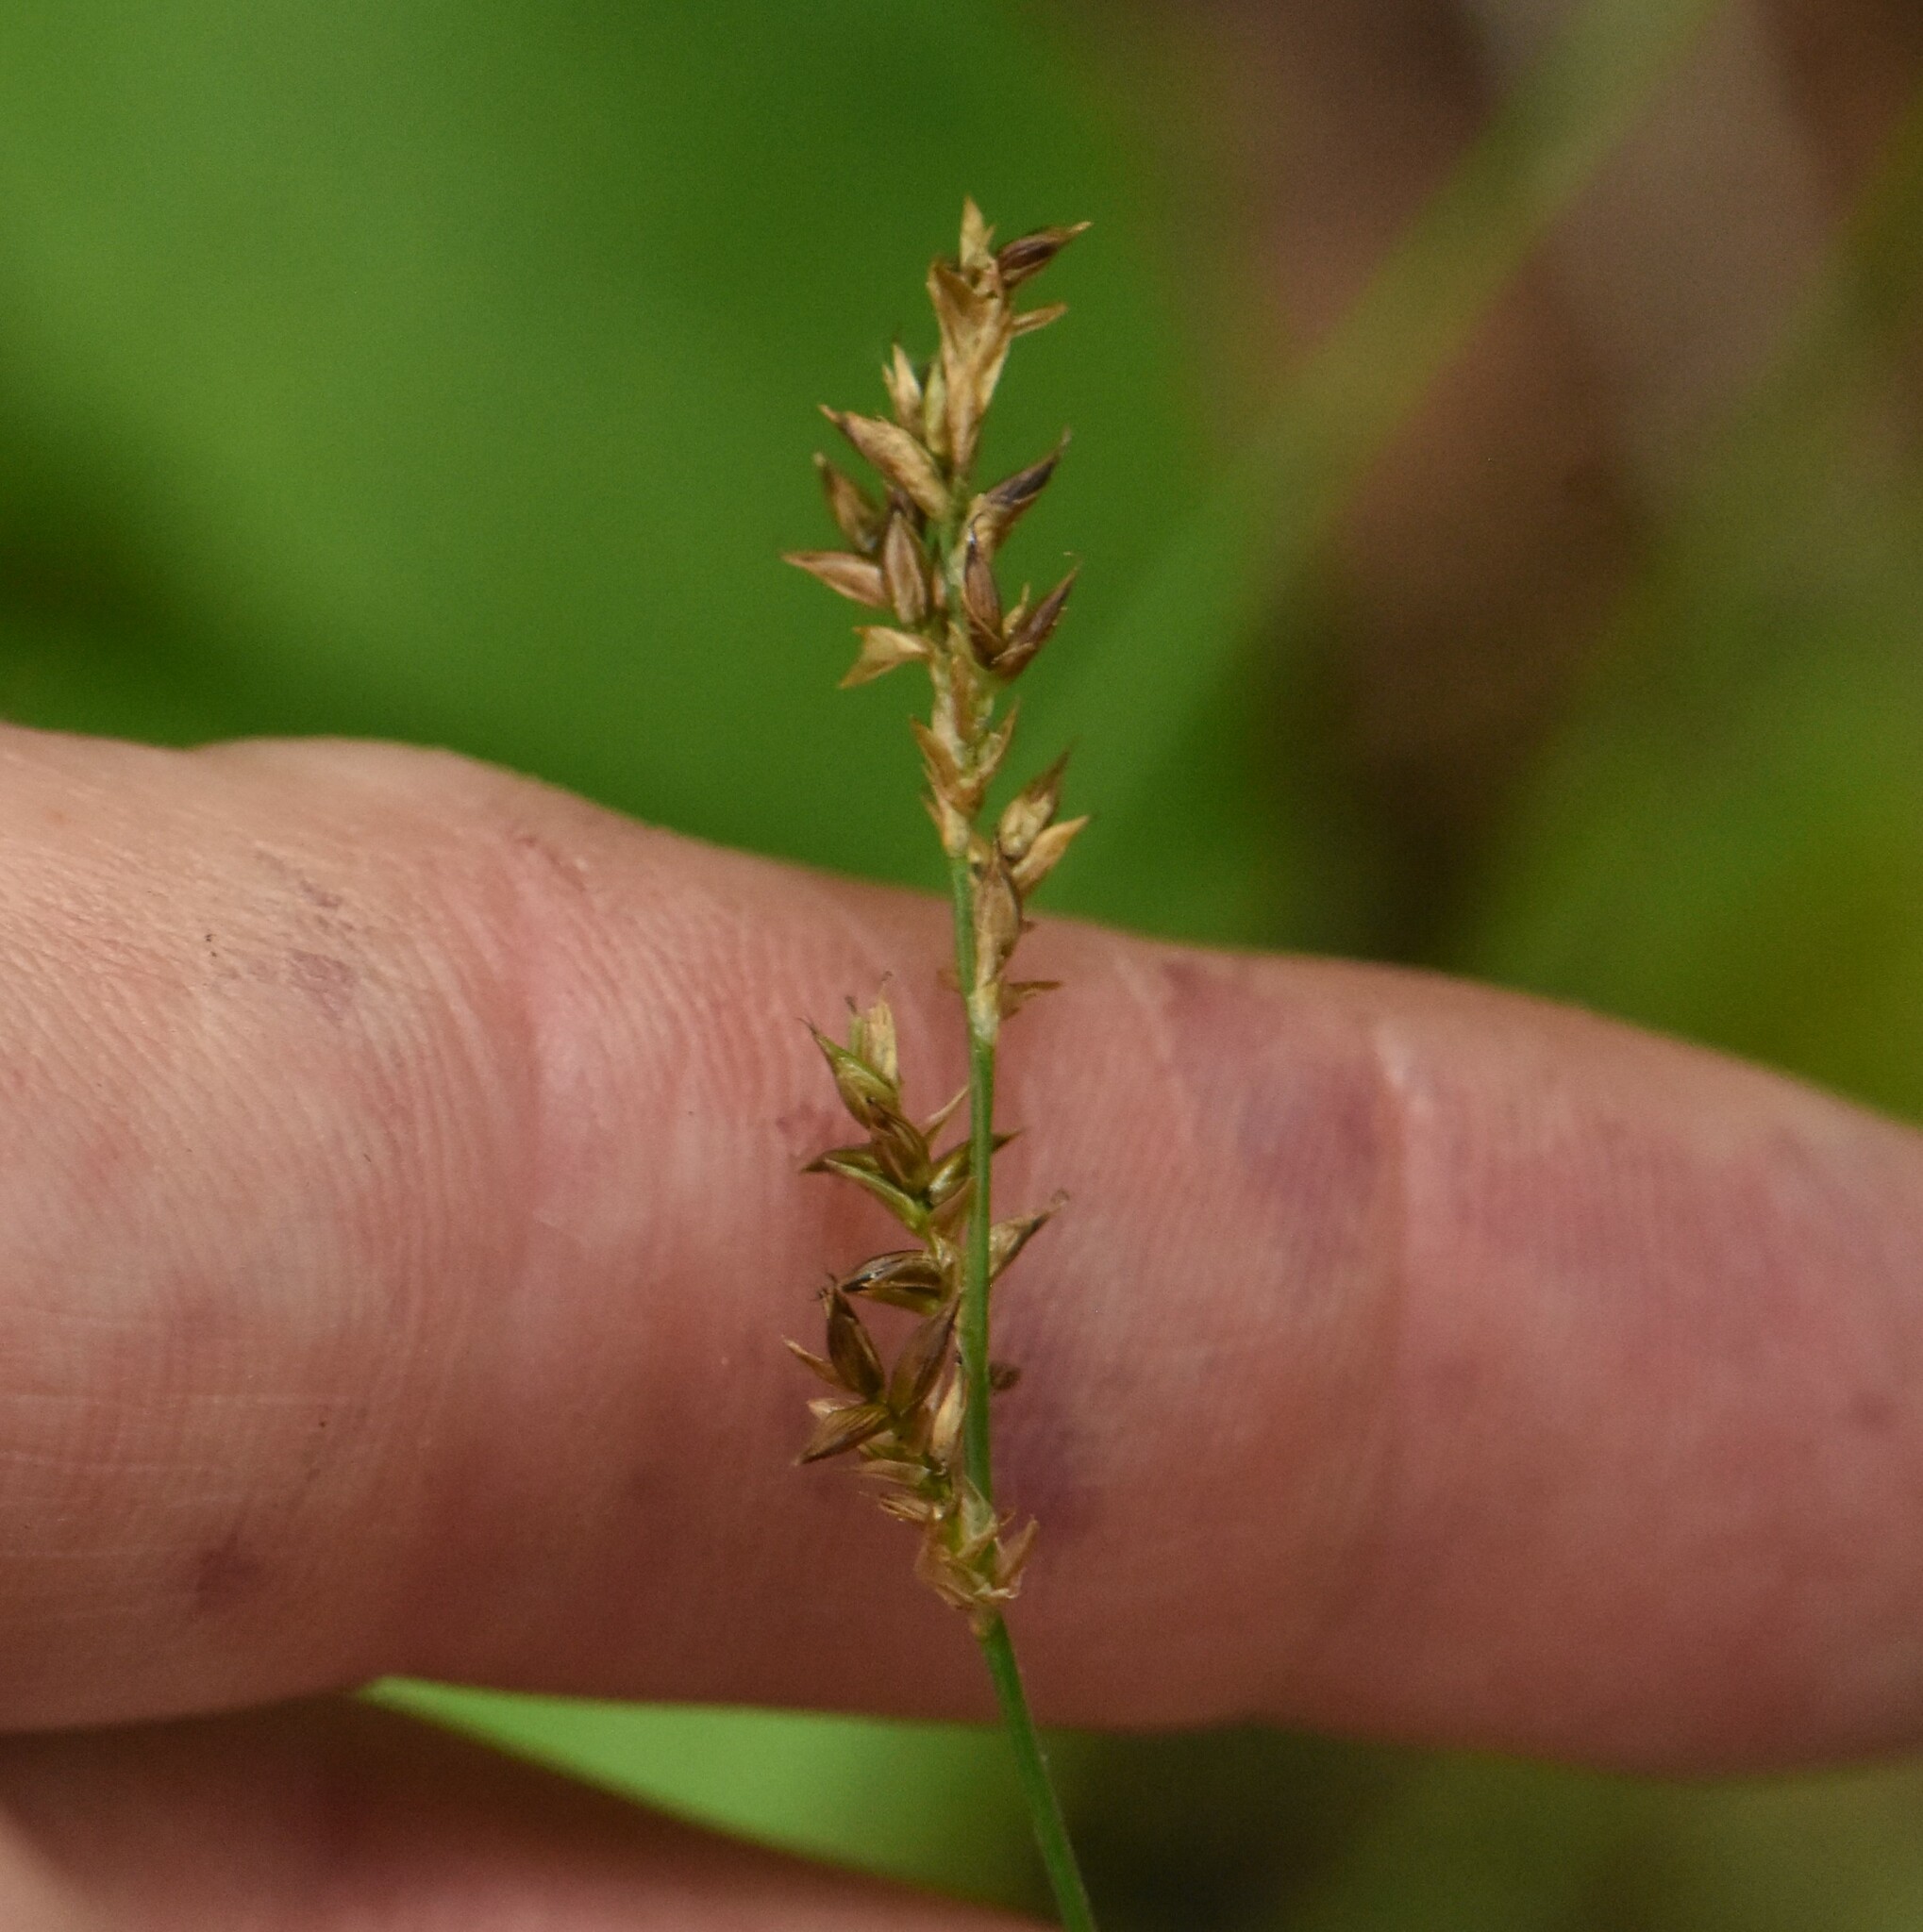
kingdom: Plantae
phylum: Tracheophyta
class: Liliopsida
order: Poales
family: Cyperaceae
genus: Carex
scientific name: Carex elongata
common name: Elongated sedge
